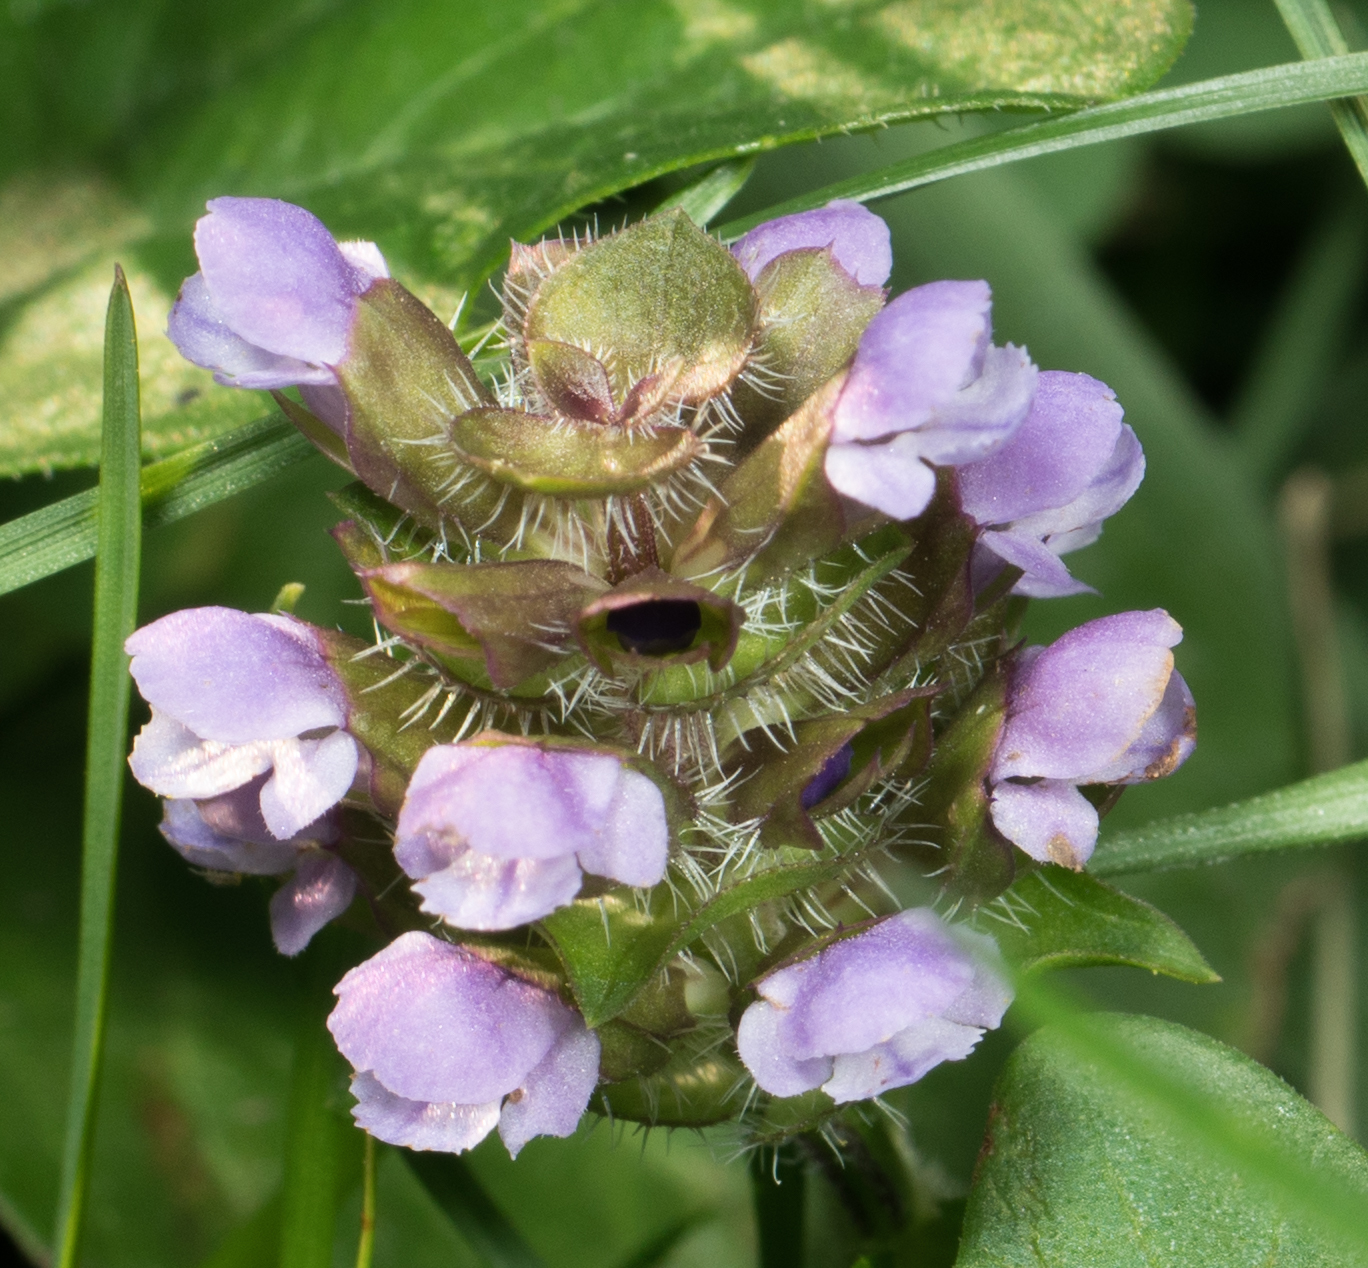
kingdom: Plantae
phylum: Tracheophyta
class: Magnoliopsida
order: Lamiales
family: Lamiaceae
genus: Prunella
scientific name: Prunella vulgaris
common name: Heal-all
